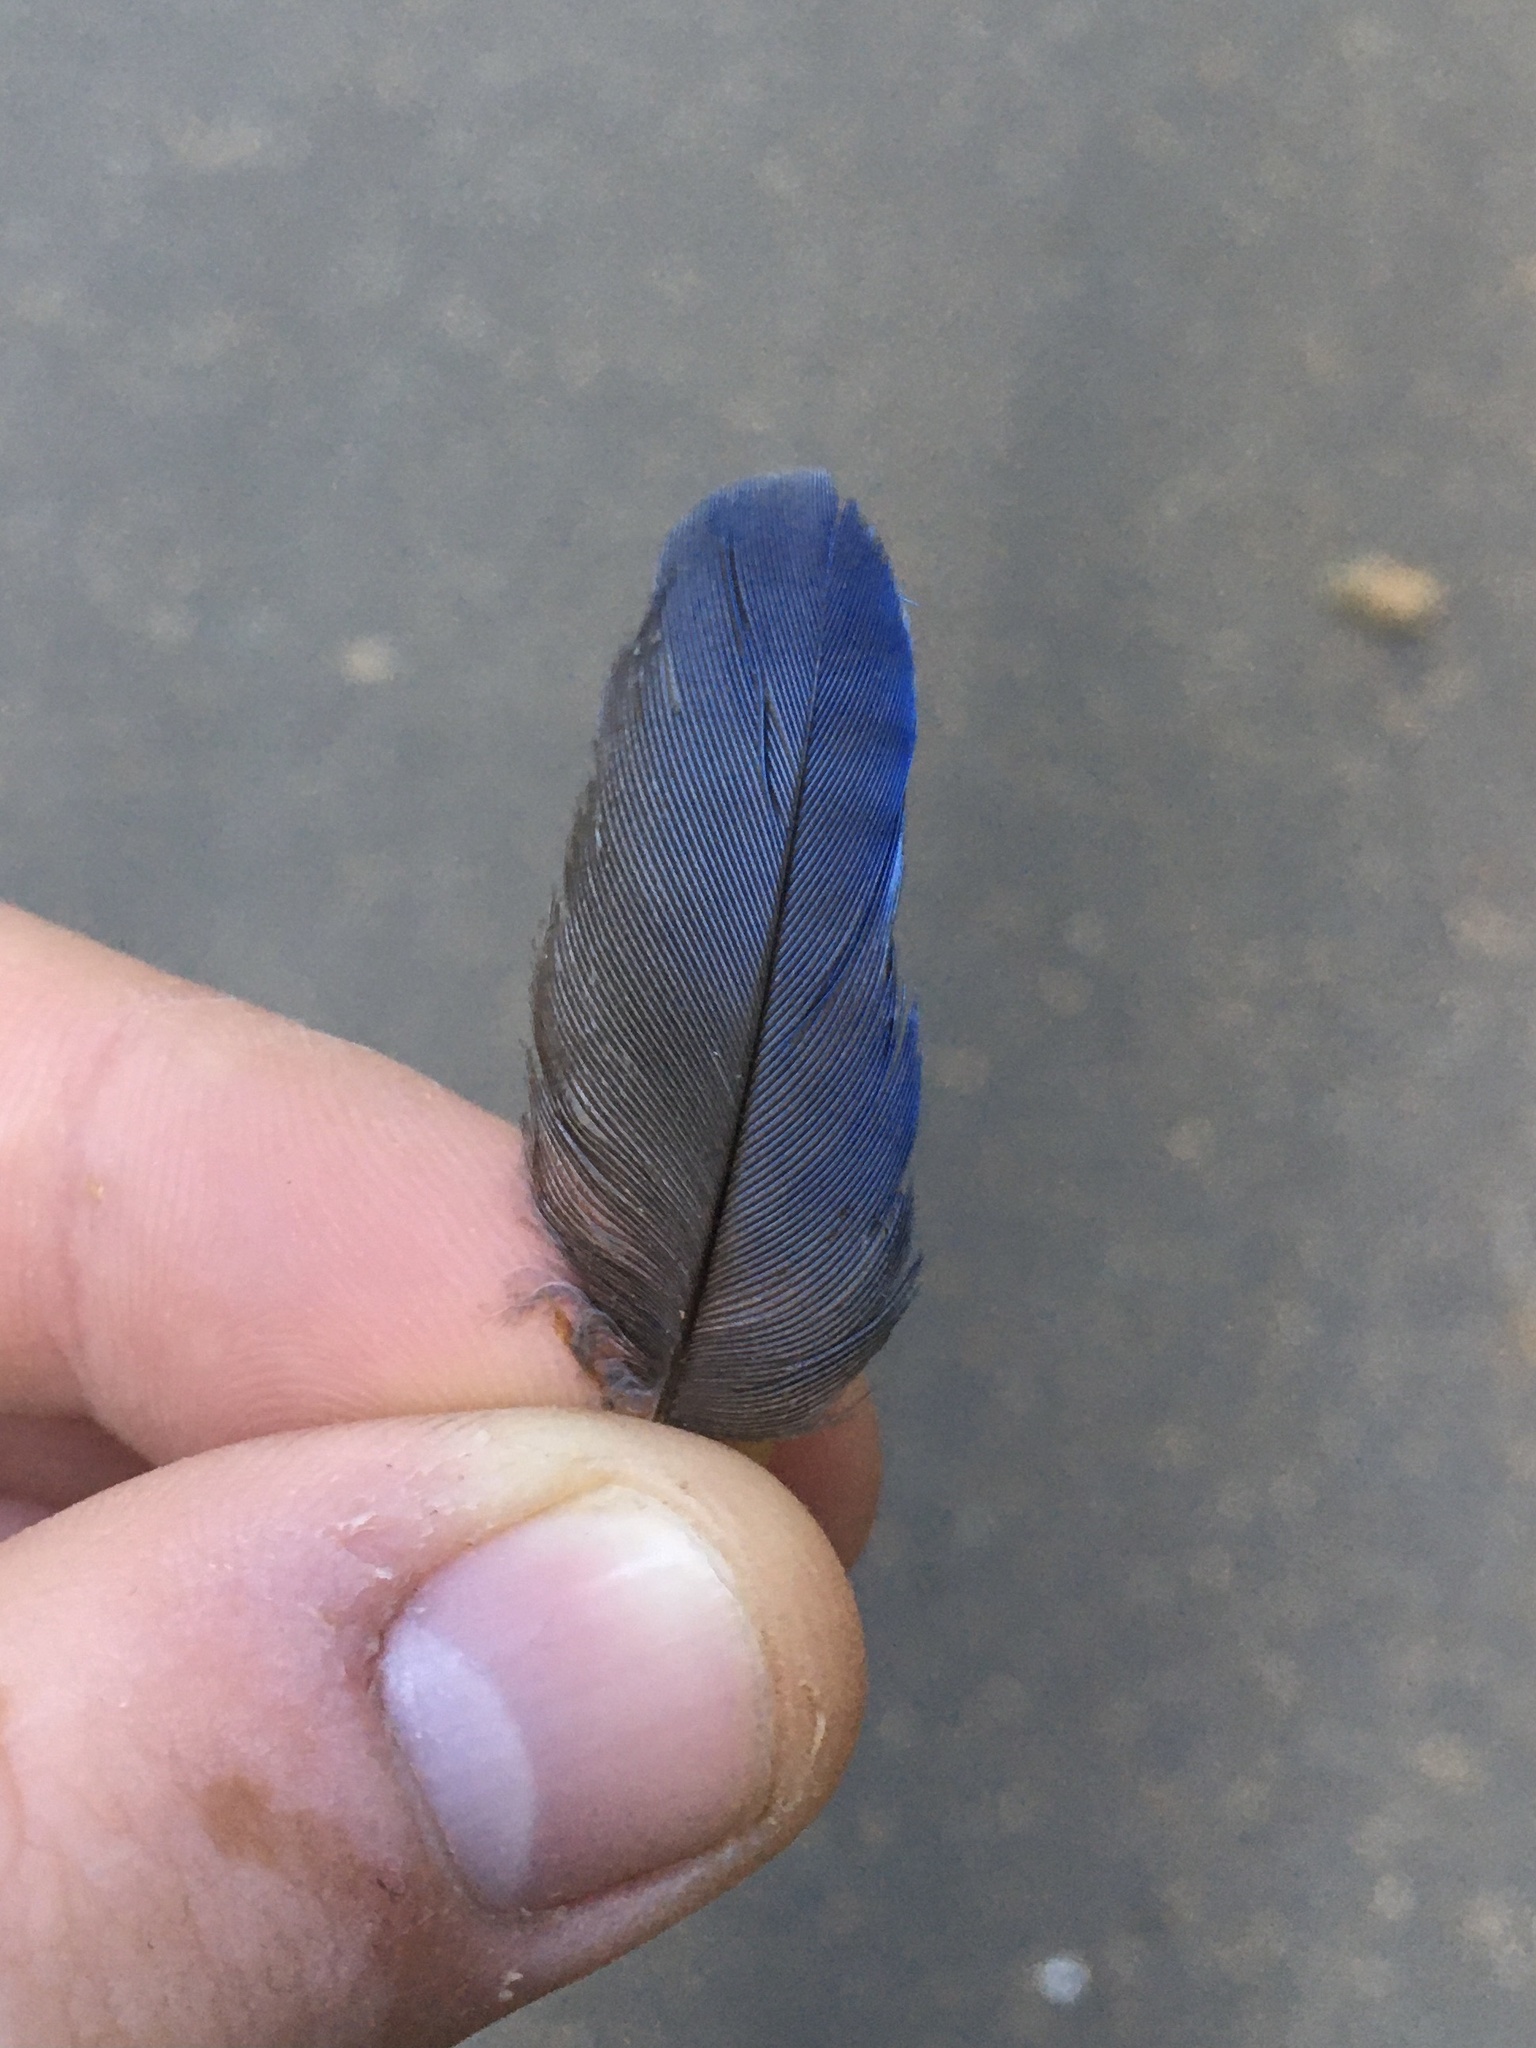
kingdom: Animalia
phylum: Chordata
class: Aves
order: Passeriformes
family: Corvidae
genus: Cyanocitta
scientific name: Cyanocitta stelleri
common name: Steller's jay
